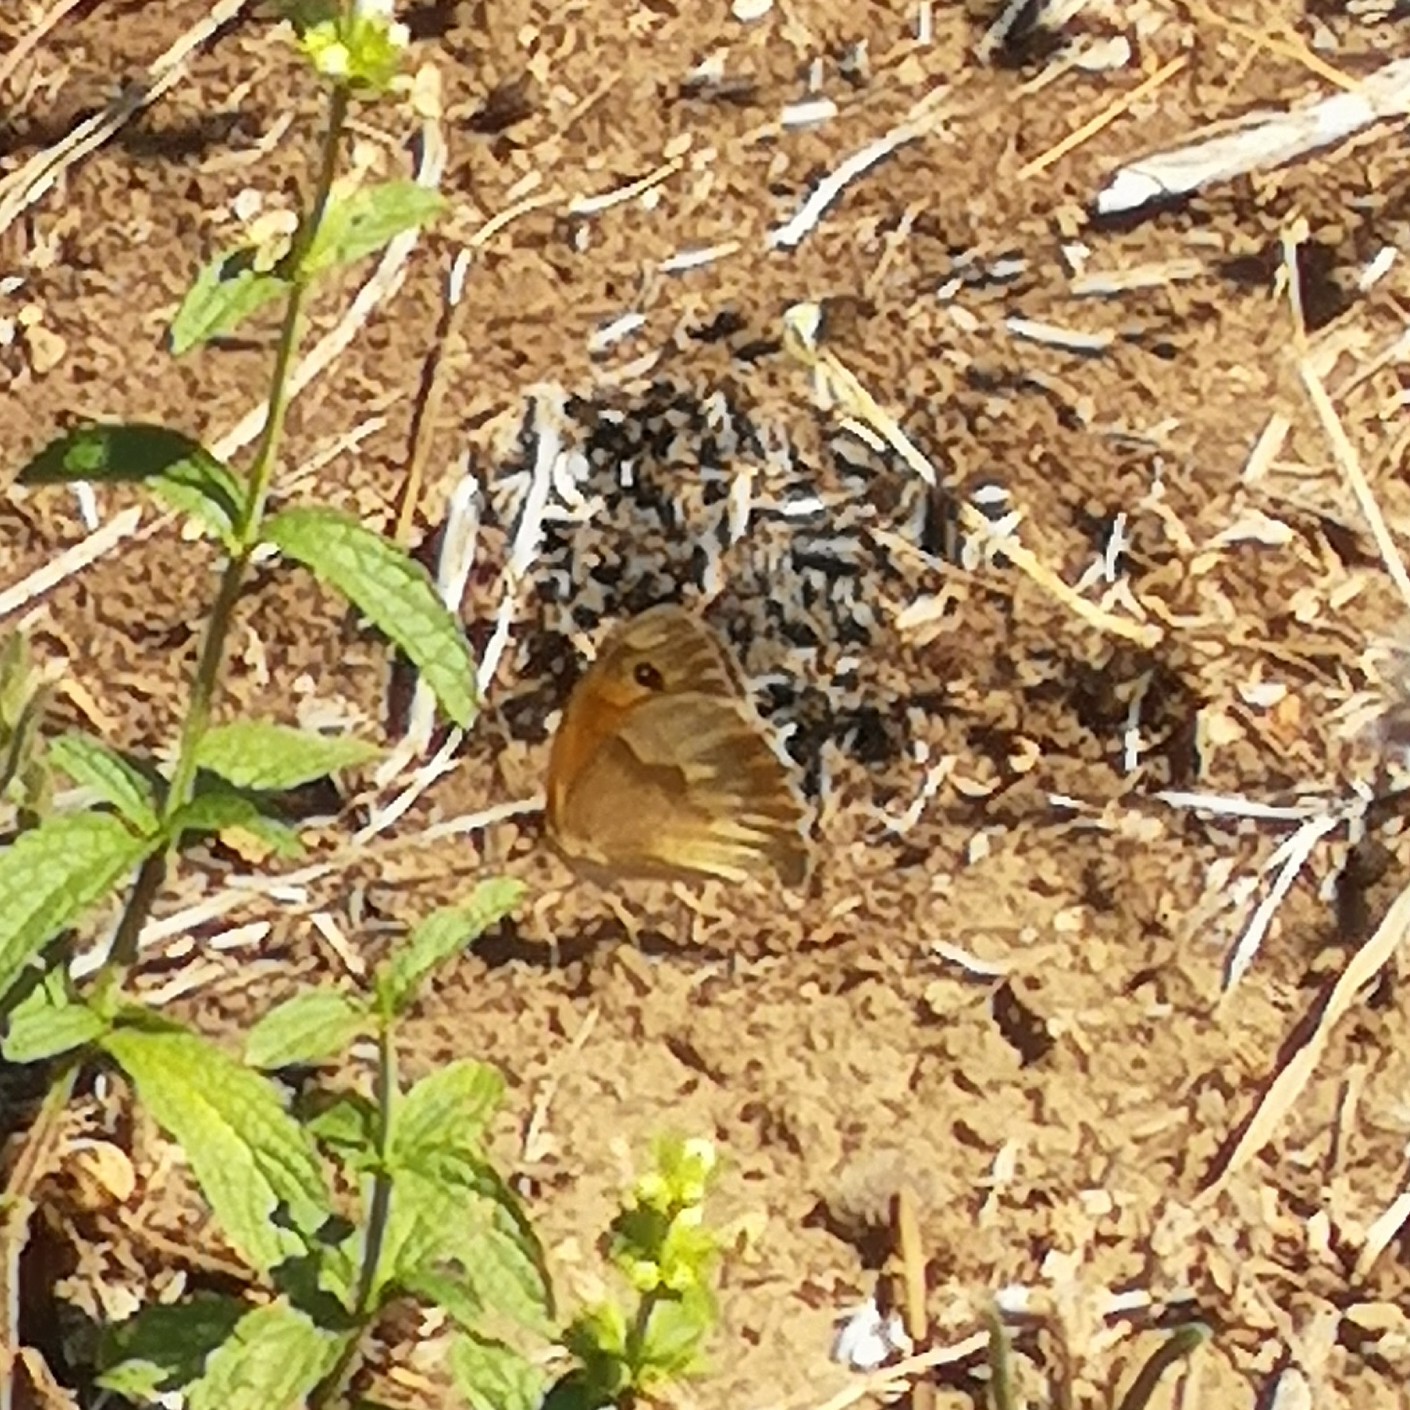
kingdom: Animalia
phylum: Arthropoda
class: Insecta
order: Lepidoptera
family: Nymphalidae
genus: Maniola
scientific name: Maniola jurtina
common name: Meadow brown
